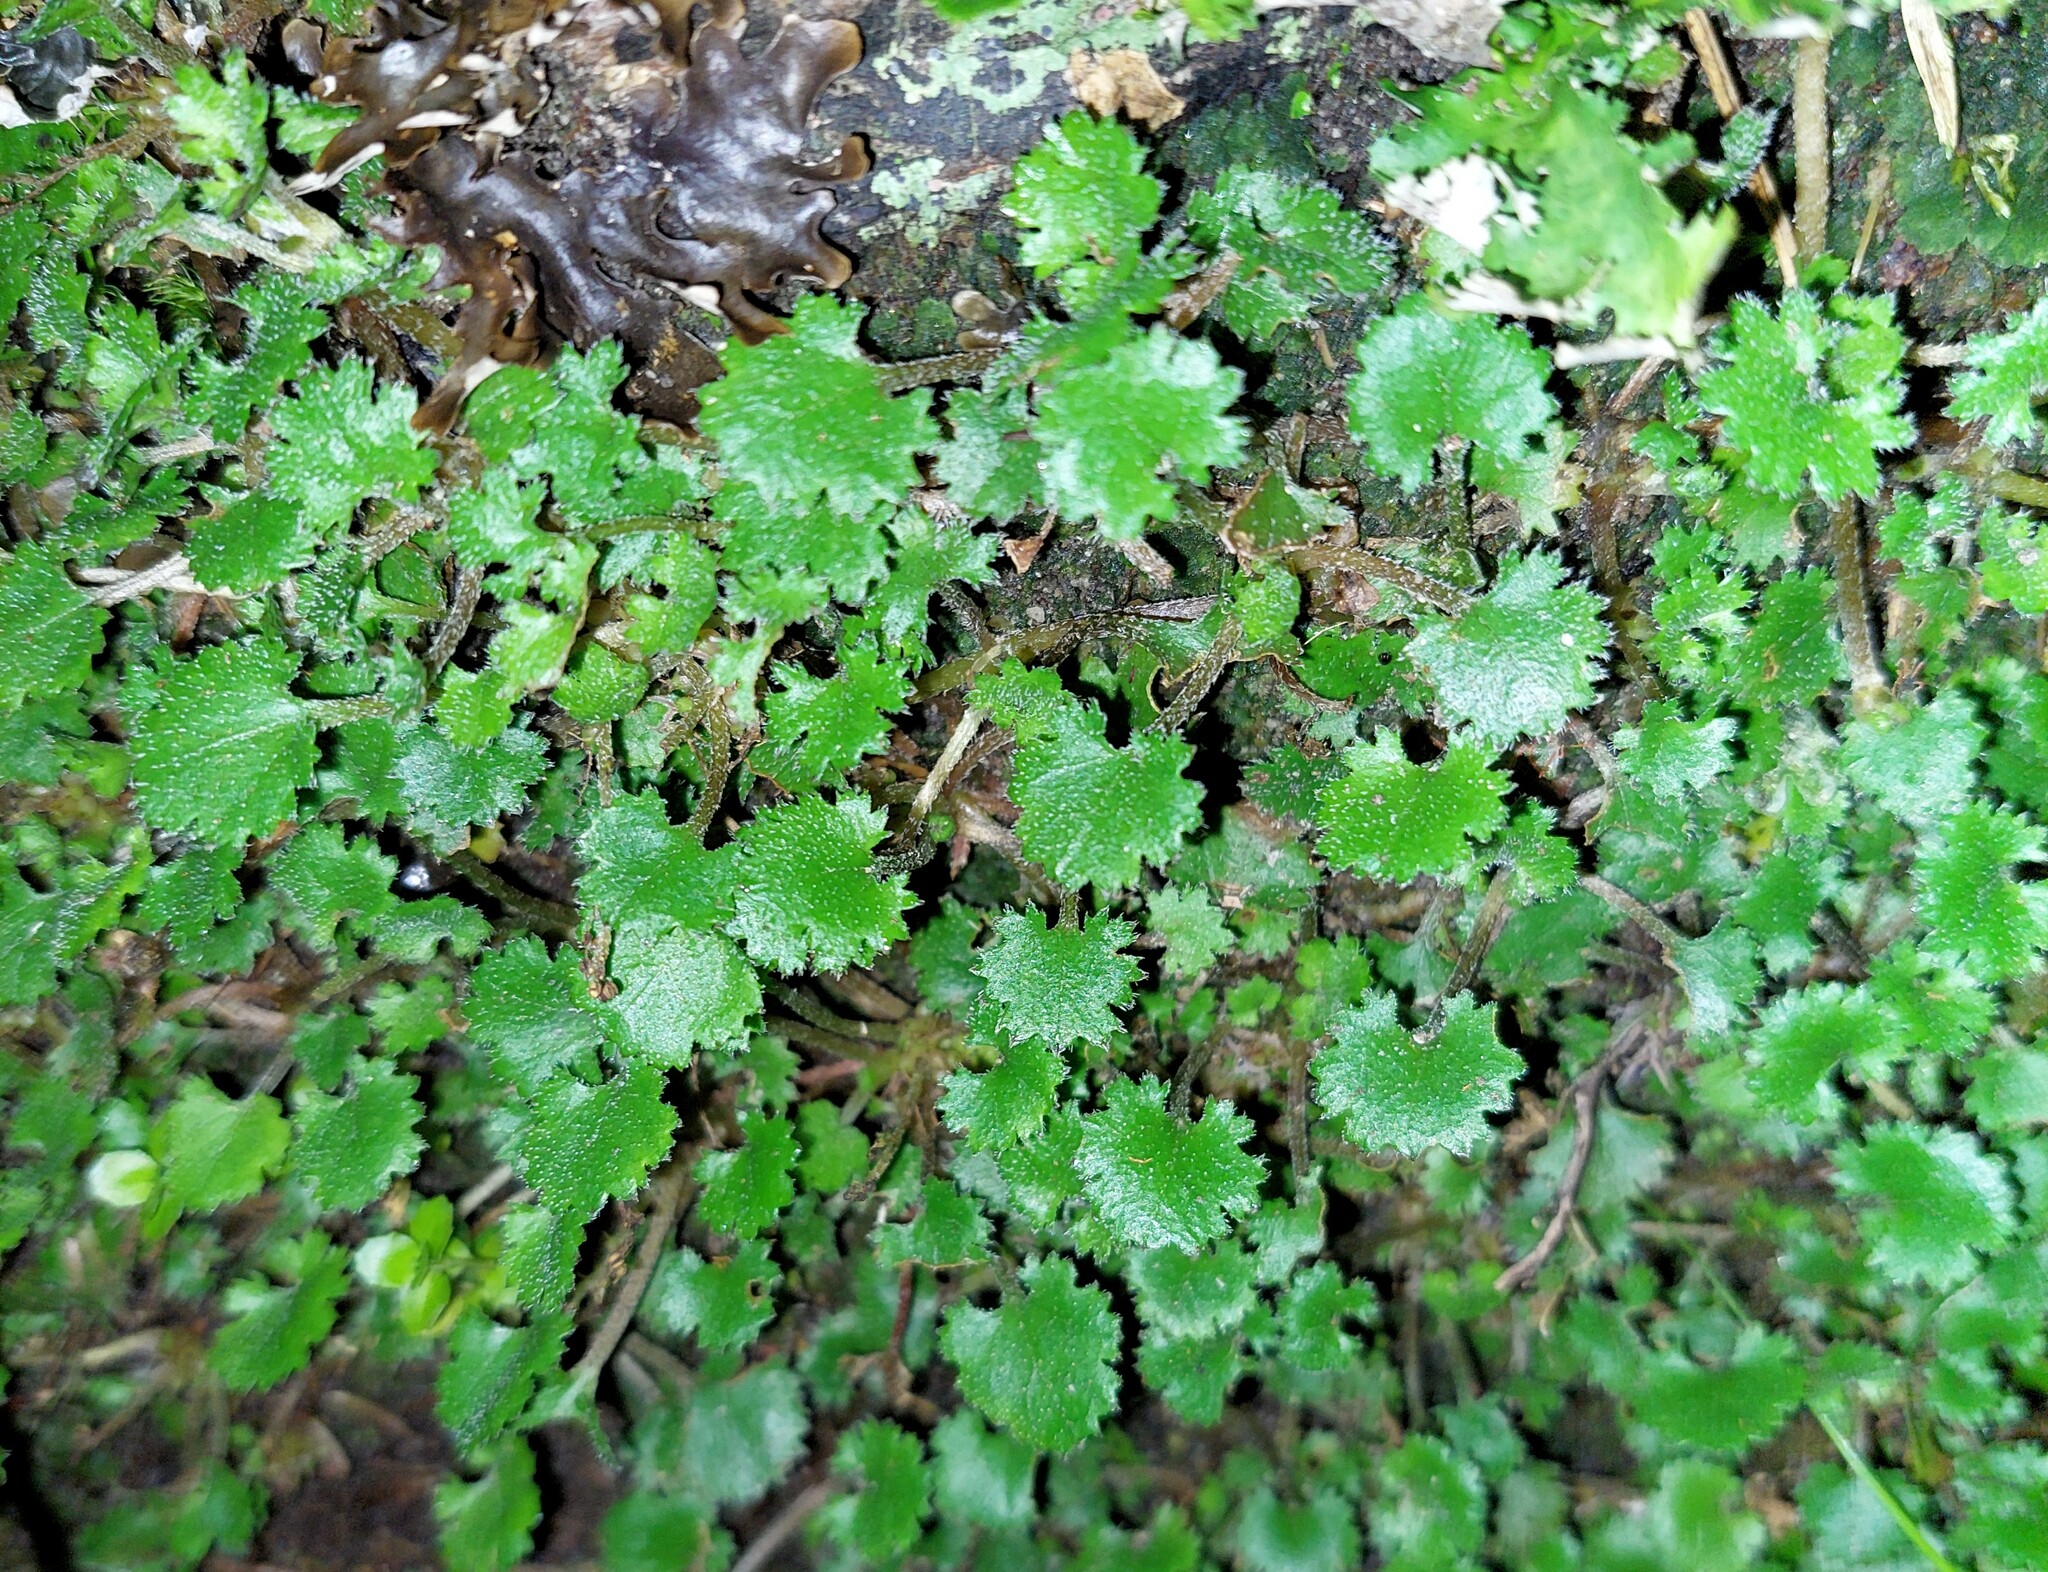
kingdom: Plantae
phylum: Tracheophyta
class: Magnoliopsida
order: Gunnerales
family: Gunneraceae
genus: Gunnera
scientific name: Gunnera monoica
